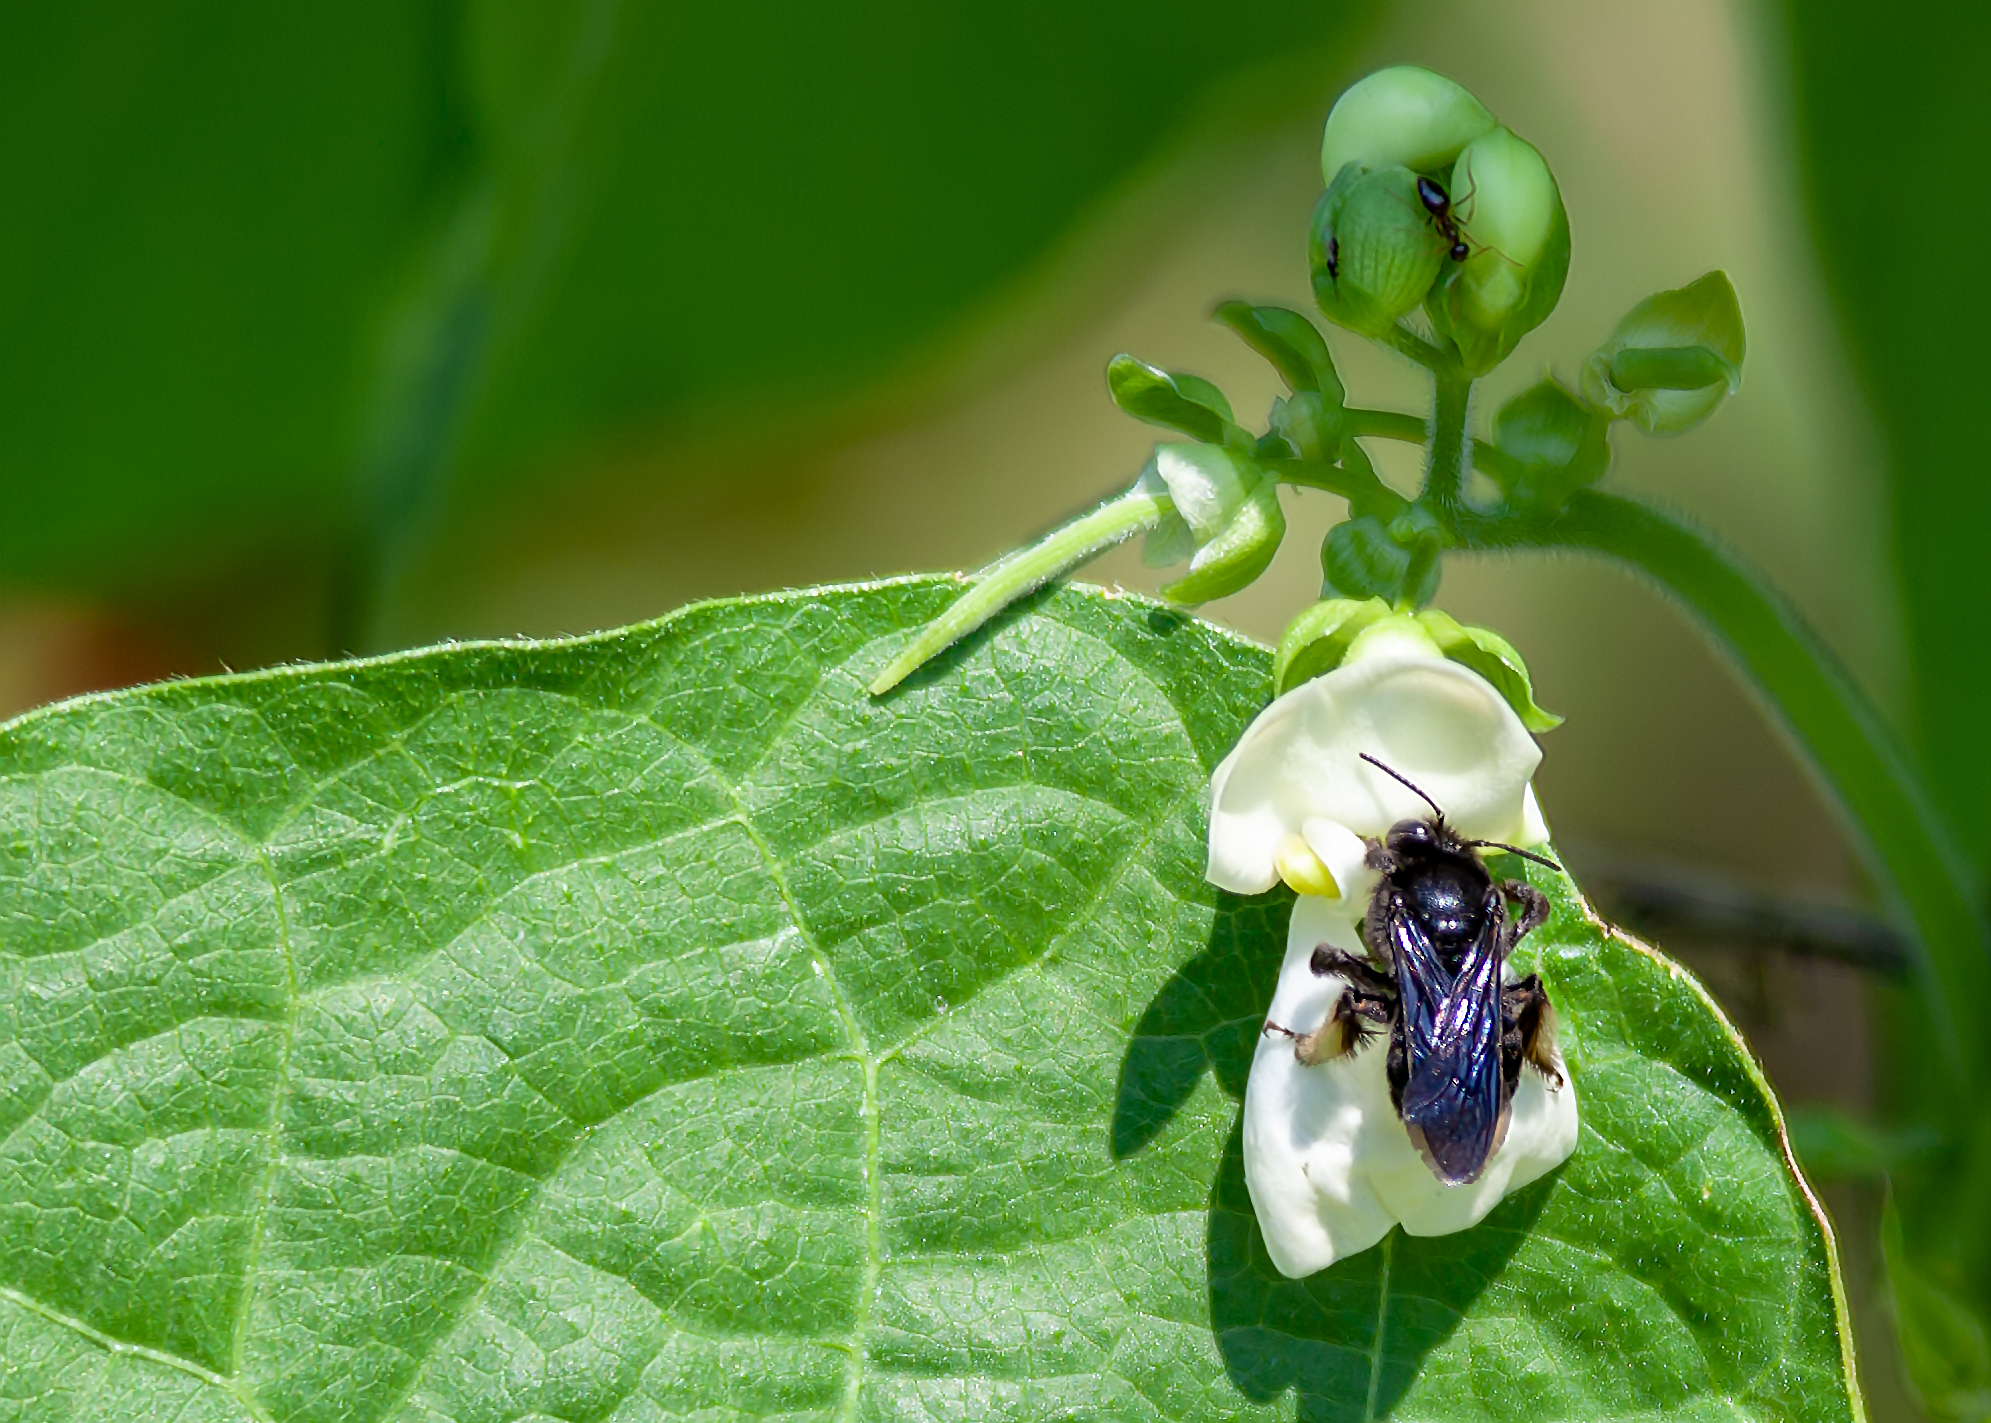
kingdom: Animalia
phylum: Arthropoda
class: Insecta
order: Hymenoptera
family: Apidae
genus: Melissodes
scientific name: Melissodes bimaculatus
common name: Two-spotted long-horned bee
